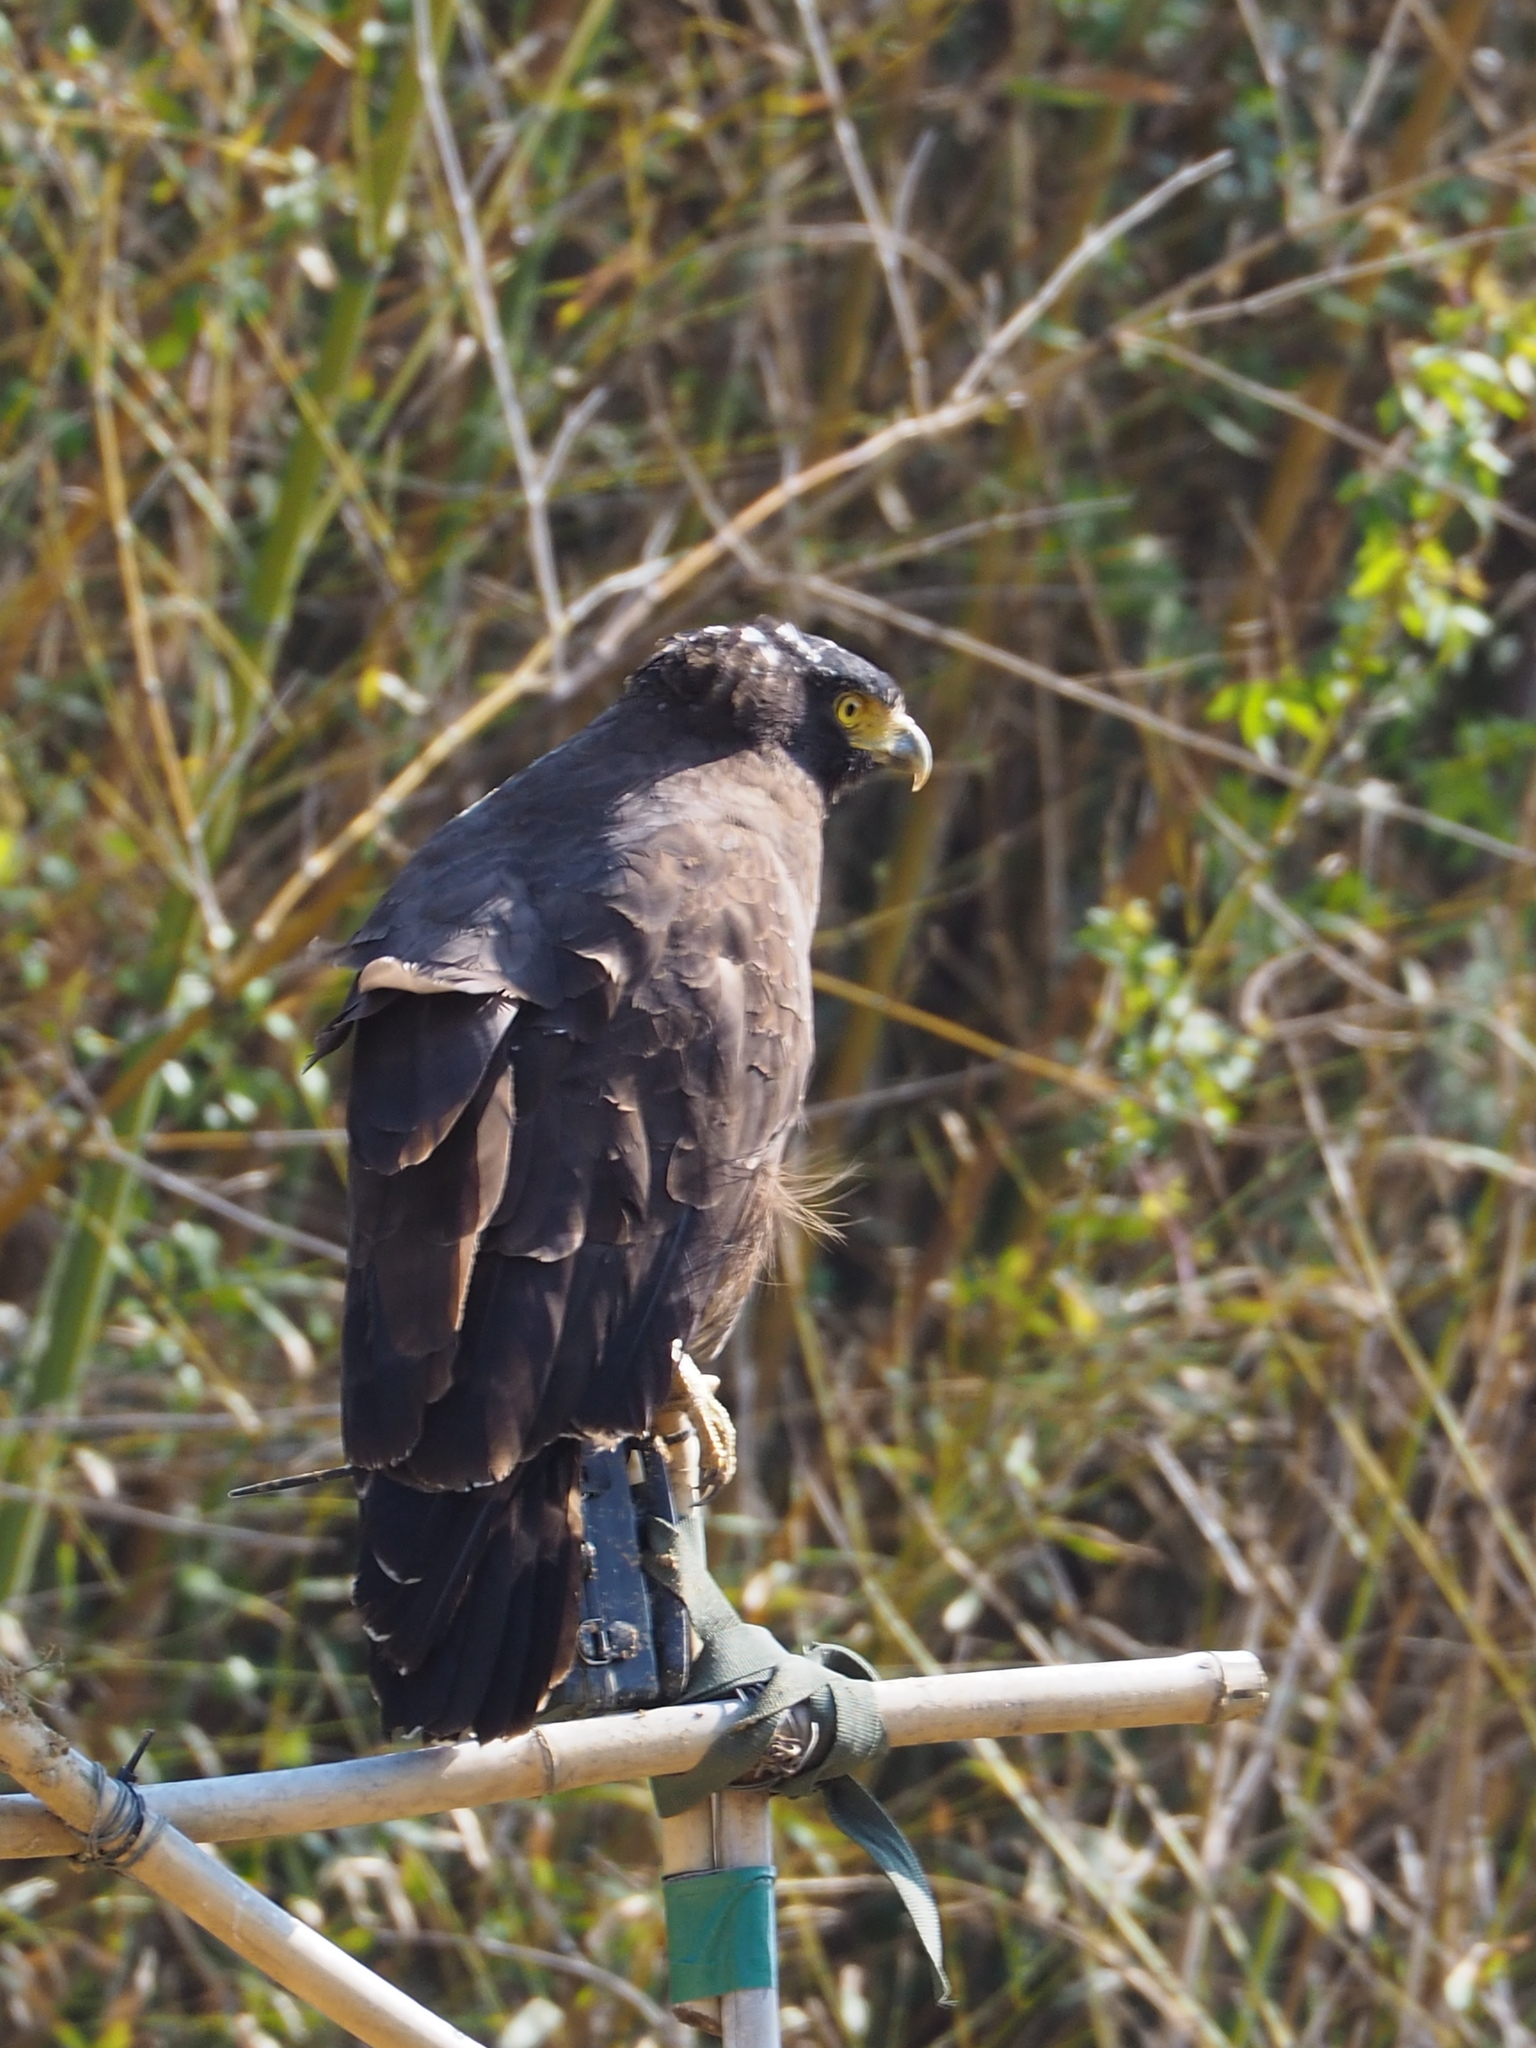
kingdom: Animalia
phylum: Chordata
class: Aves
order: Accipitriformes
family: Accipitridae
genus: Spilornis
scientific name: Spilornis cheela
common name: Crested serpent eagle
